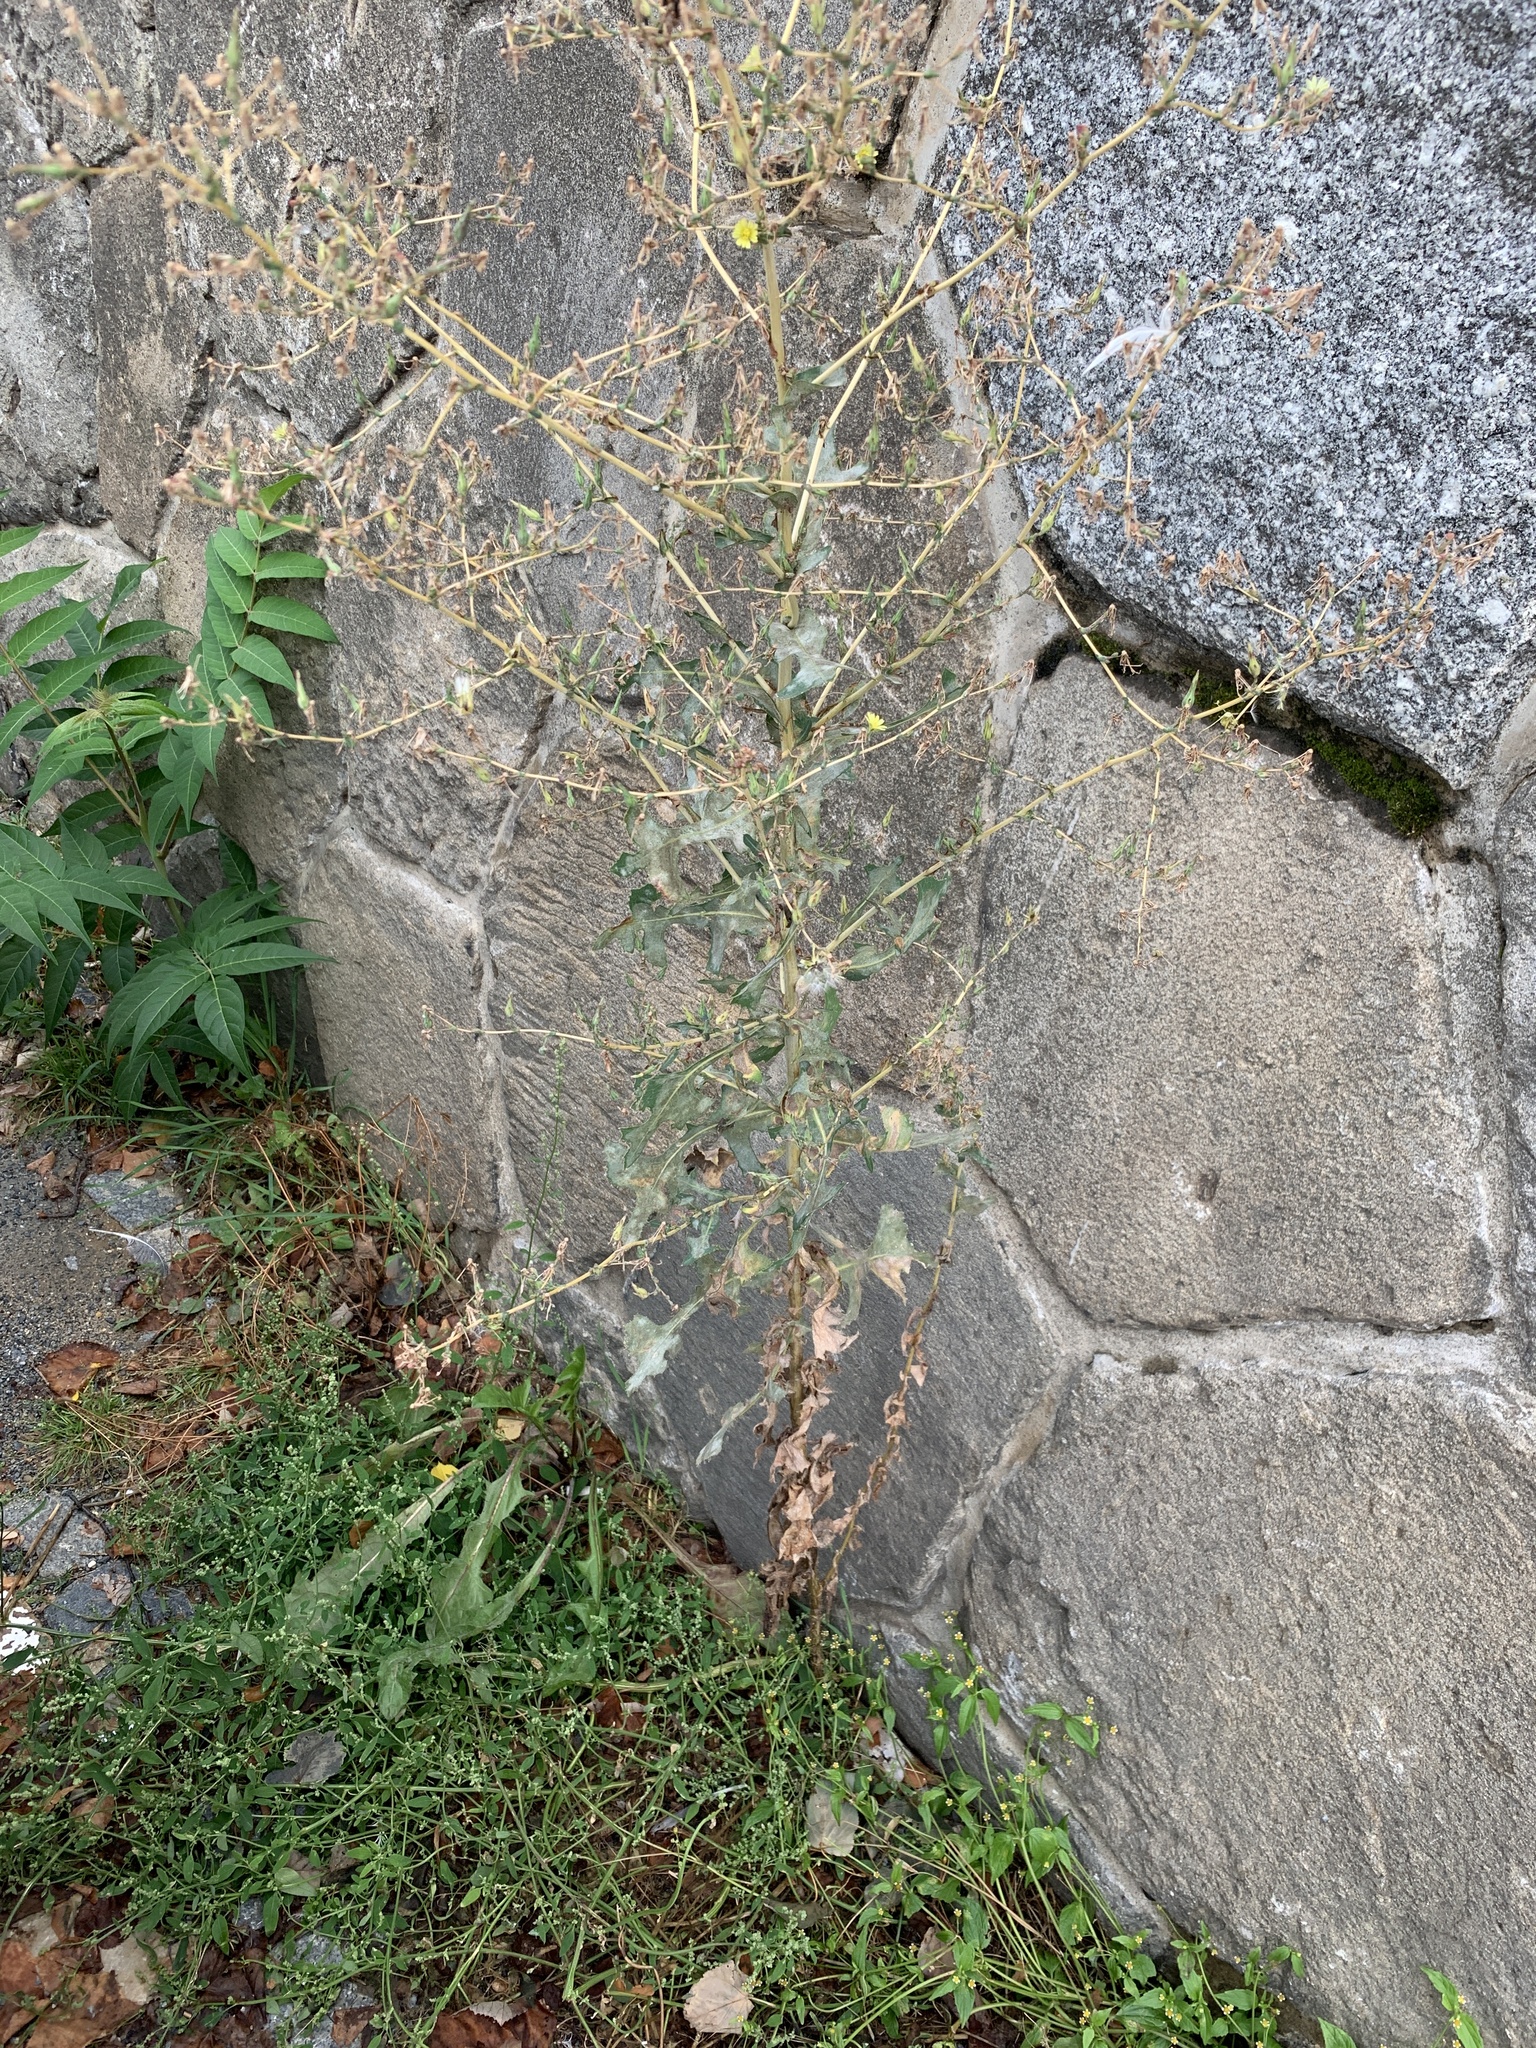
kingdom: Plantae
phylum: Tracheophyta
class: Magnoliopsida
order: Asterales
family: Asteraceae
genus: Lactuca
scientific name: Lactuca serriola
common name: Prickly lettuce
